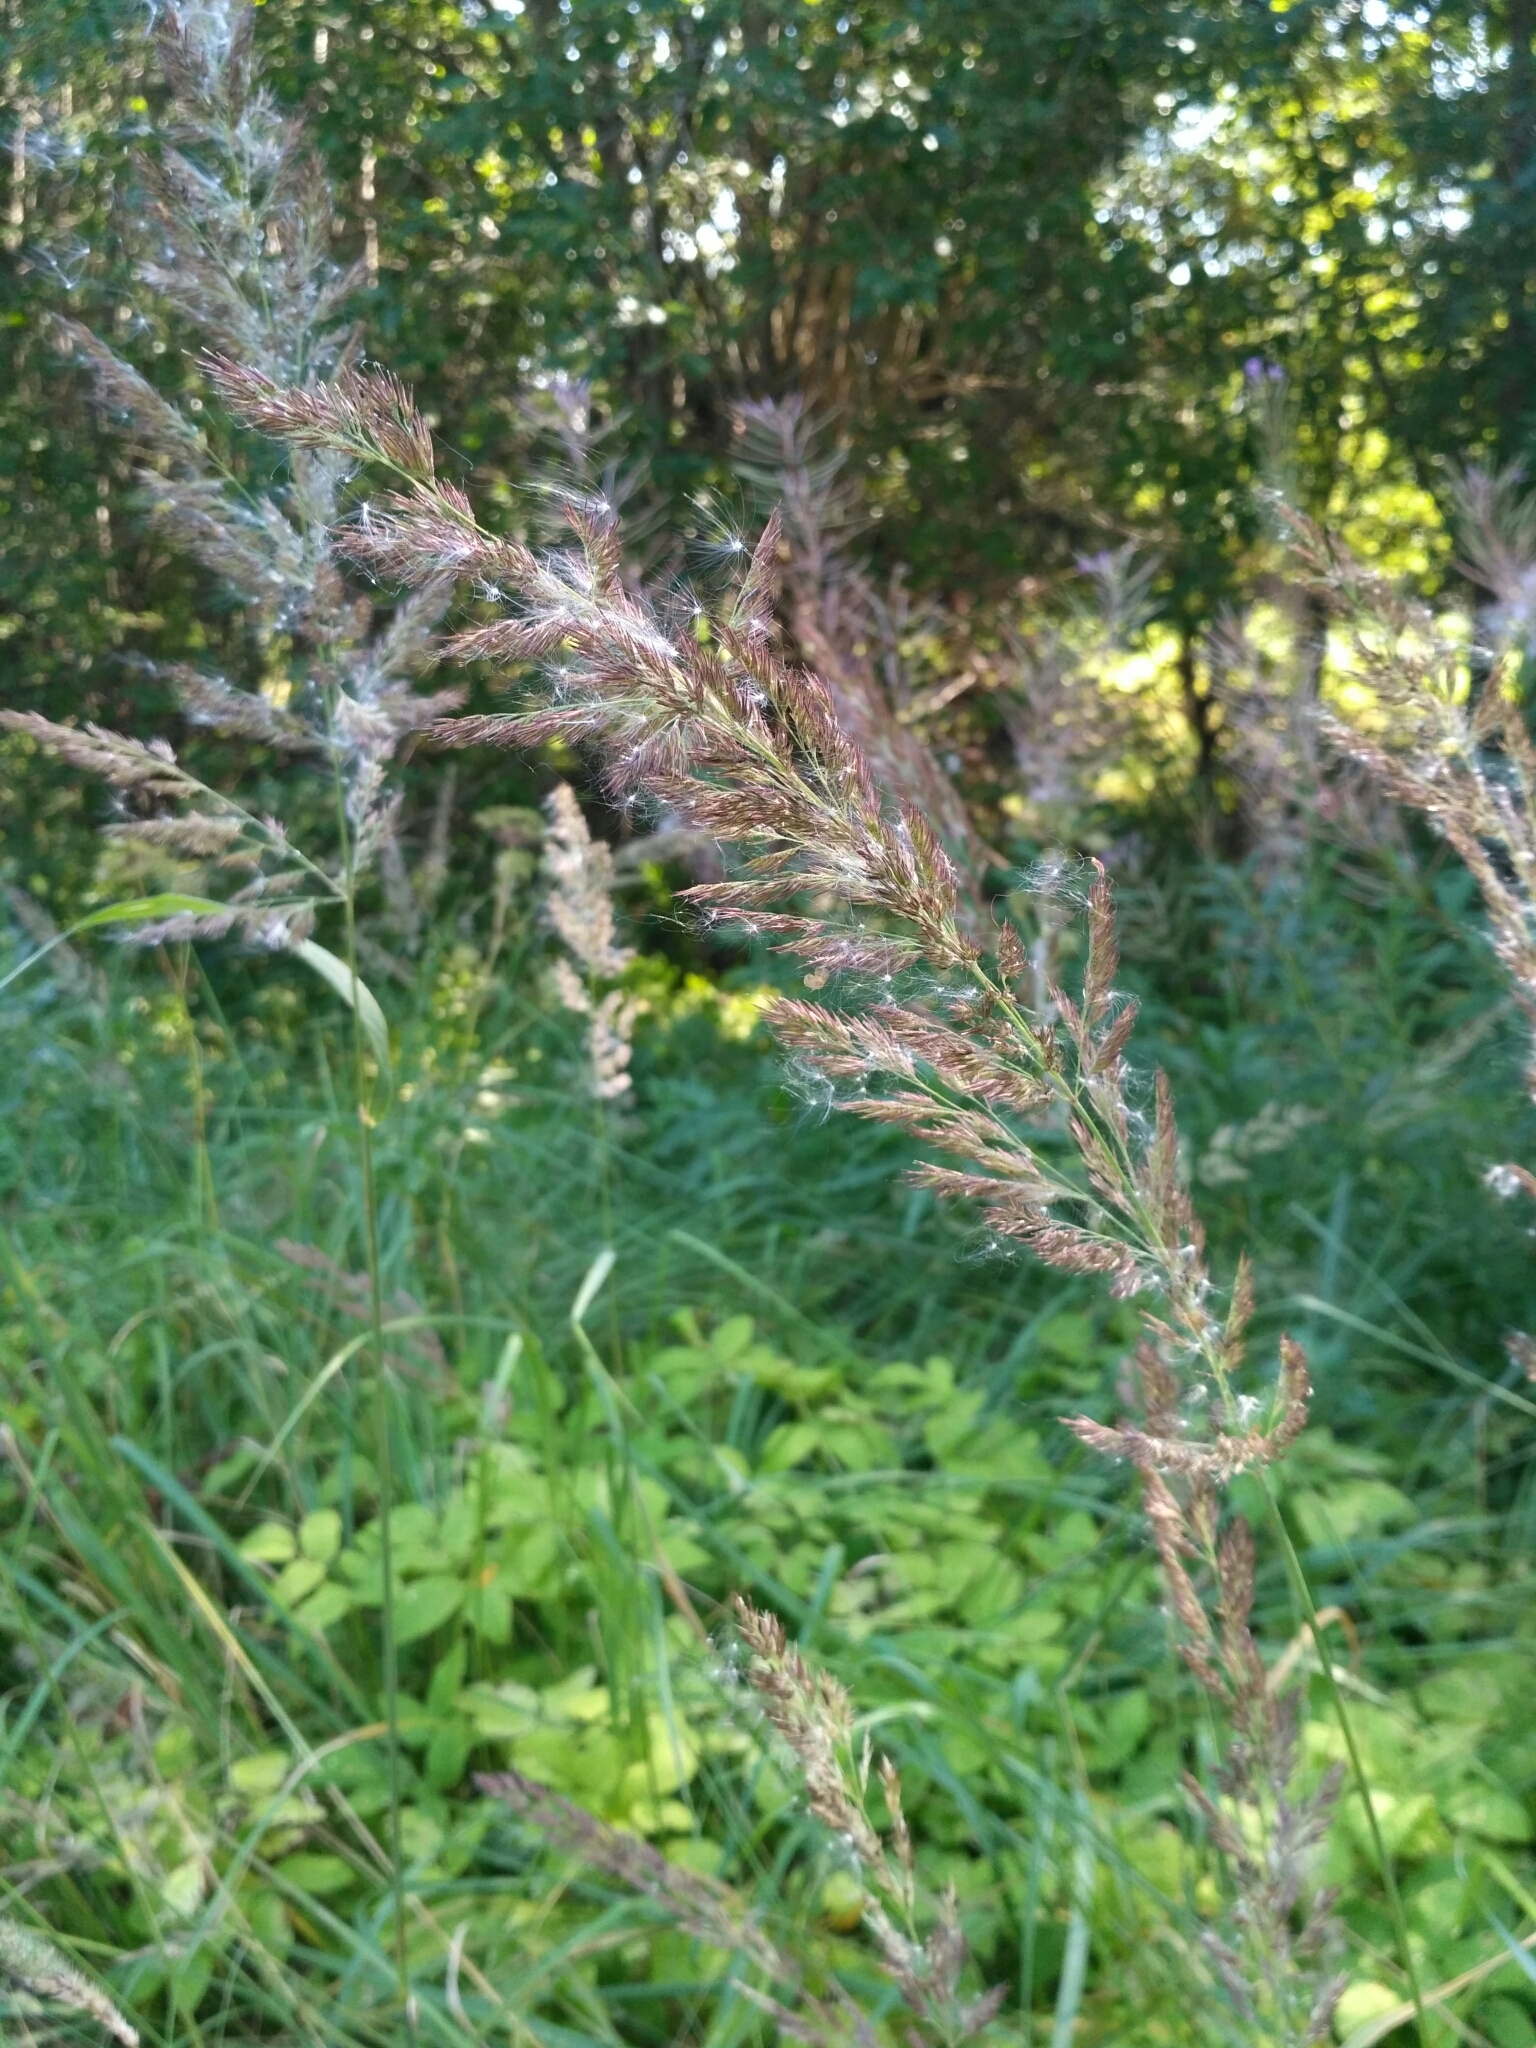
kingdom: Plantae
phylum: Tracheophyta
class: Liliopsida
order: Poales
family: Poaceae
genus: Calamagrostis
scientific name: Calamagrostis epigejos
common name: Wood small-reed
